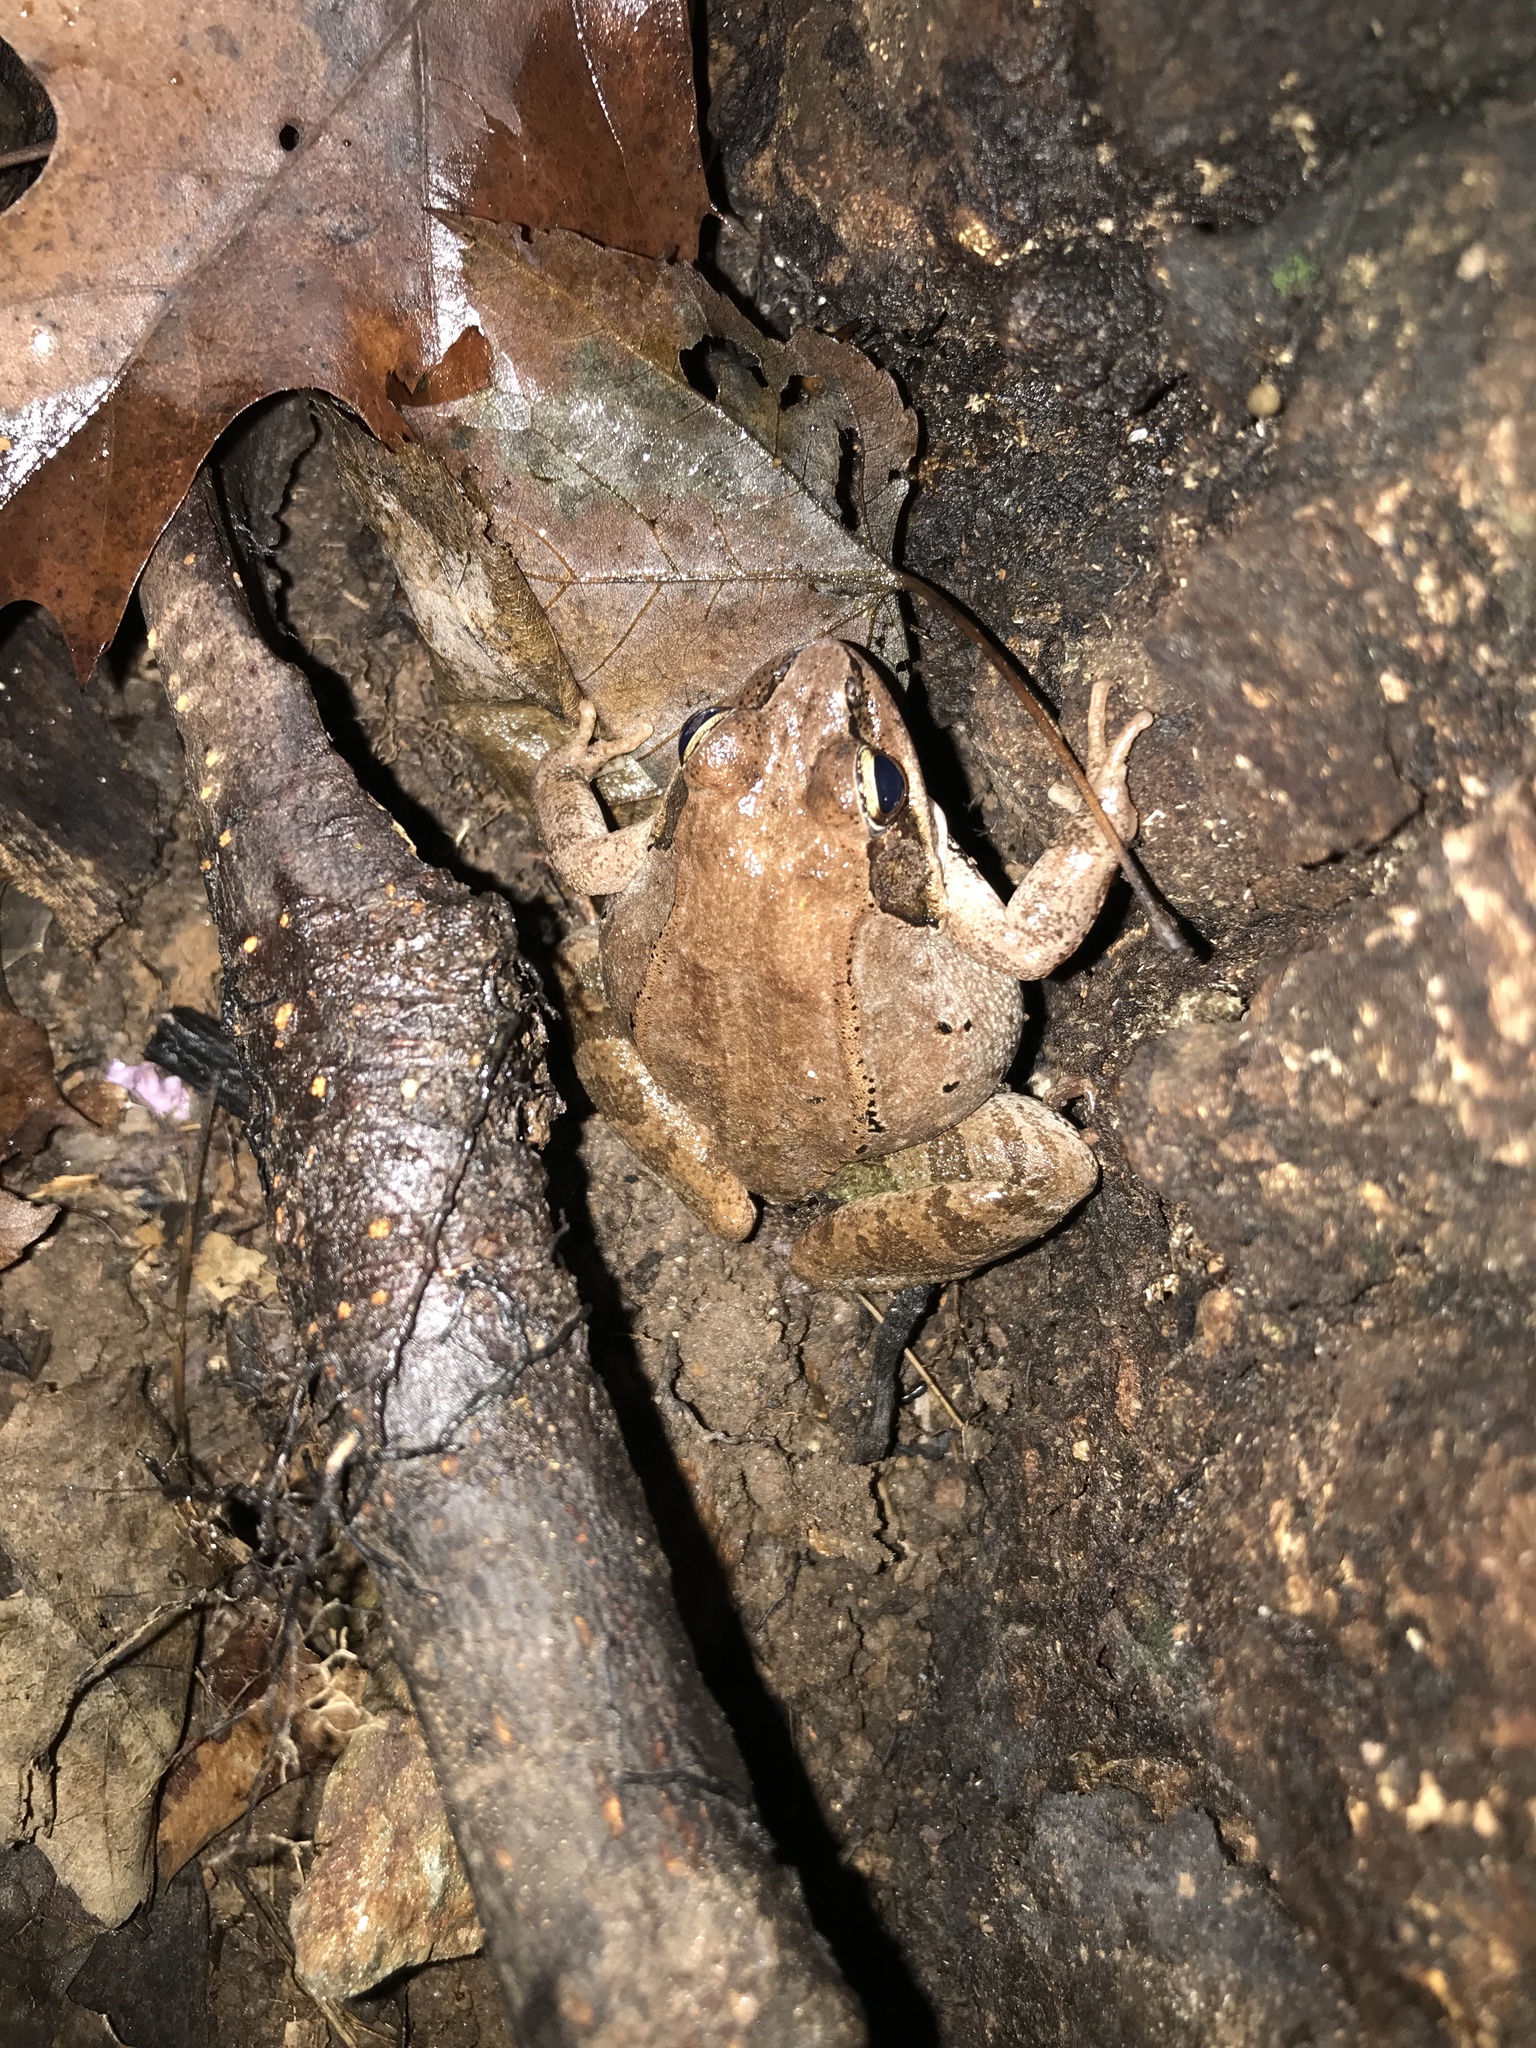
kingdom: Animalia
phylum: Chordata
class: Amphibia
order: Anura
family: Ranidae
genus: Lithobates
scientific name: Lithobates sylvaticus
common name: Wood frog
